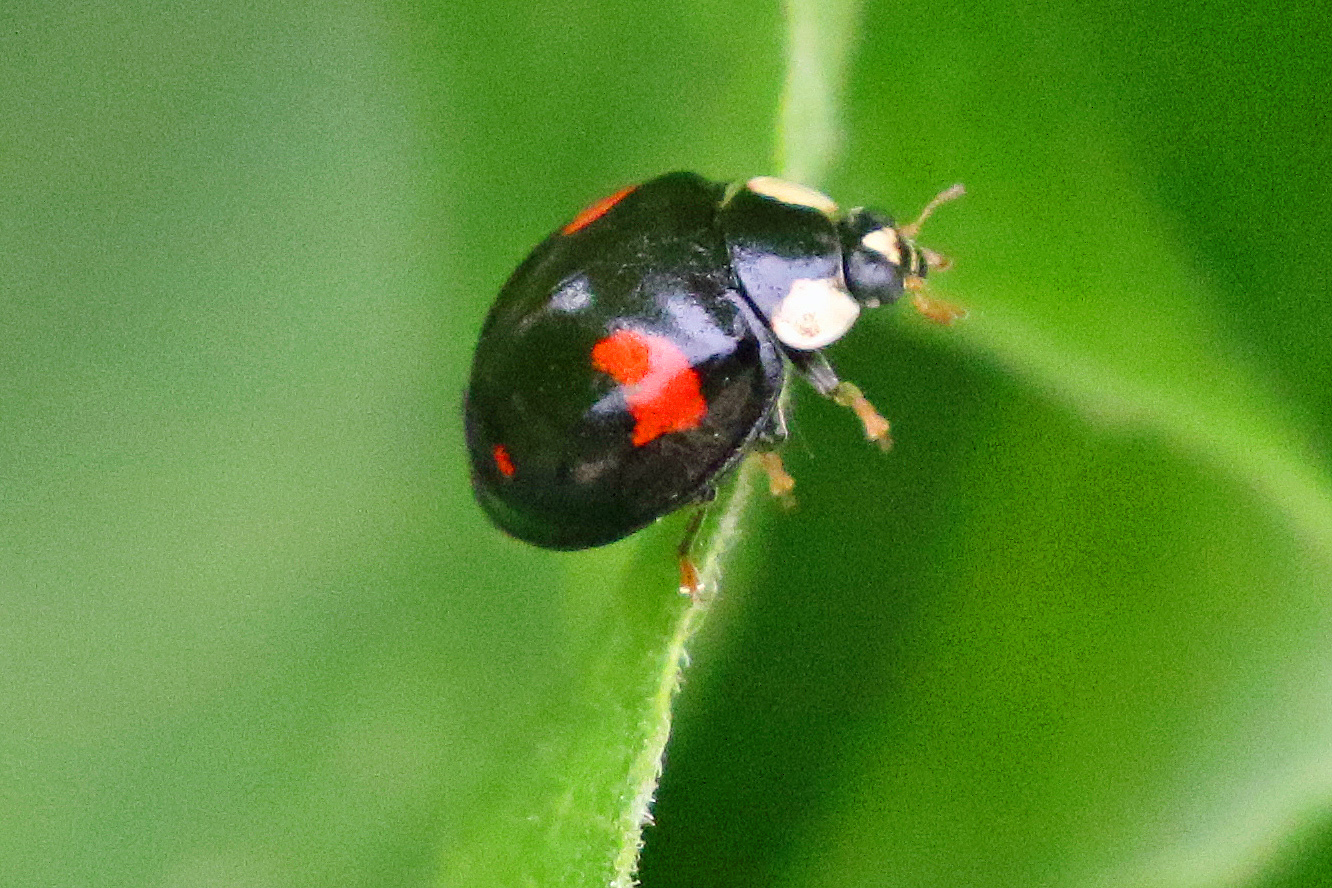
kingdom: Animalia
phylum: Arthropoda
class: Insecta
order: Coleoptera
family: Coccinellidae
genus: Harmonia
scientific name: Harmonia axyridis
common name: Harlequin ladybird
